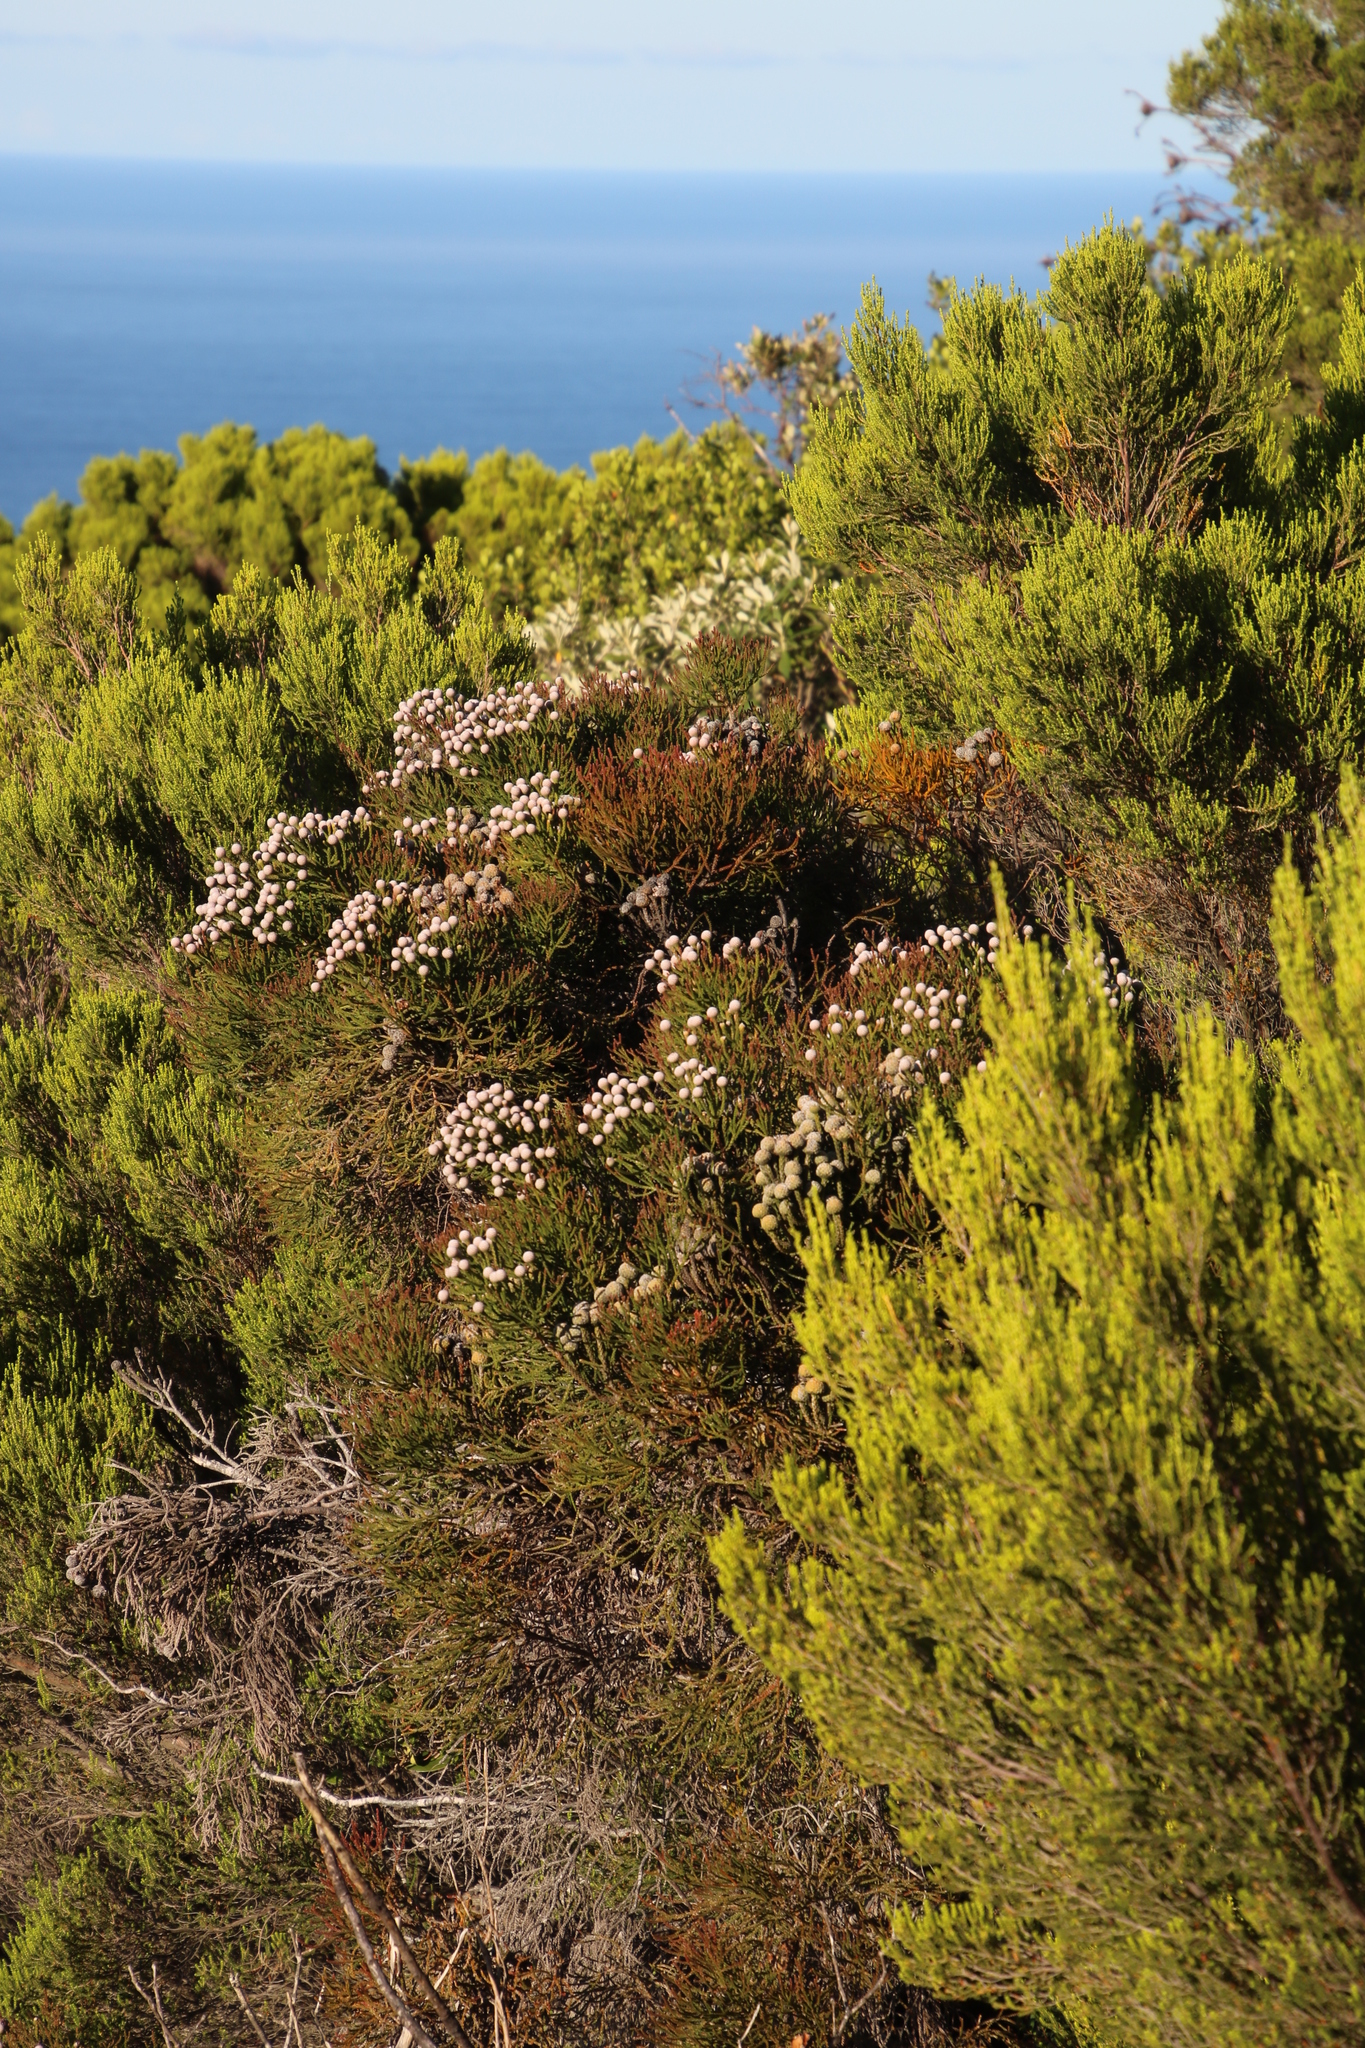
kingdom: Plantae
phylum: Tracheophyta
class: Magnoliopsida
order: Bruniales
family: Bruniaceae
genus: Brunia
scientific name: Brunia noduliflora
